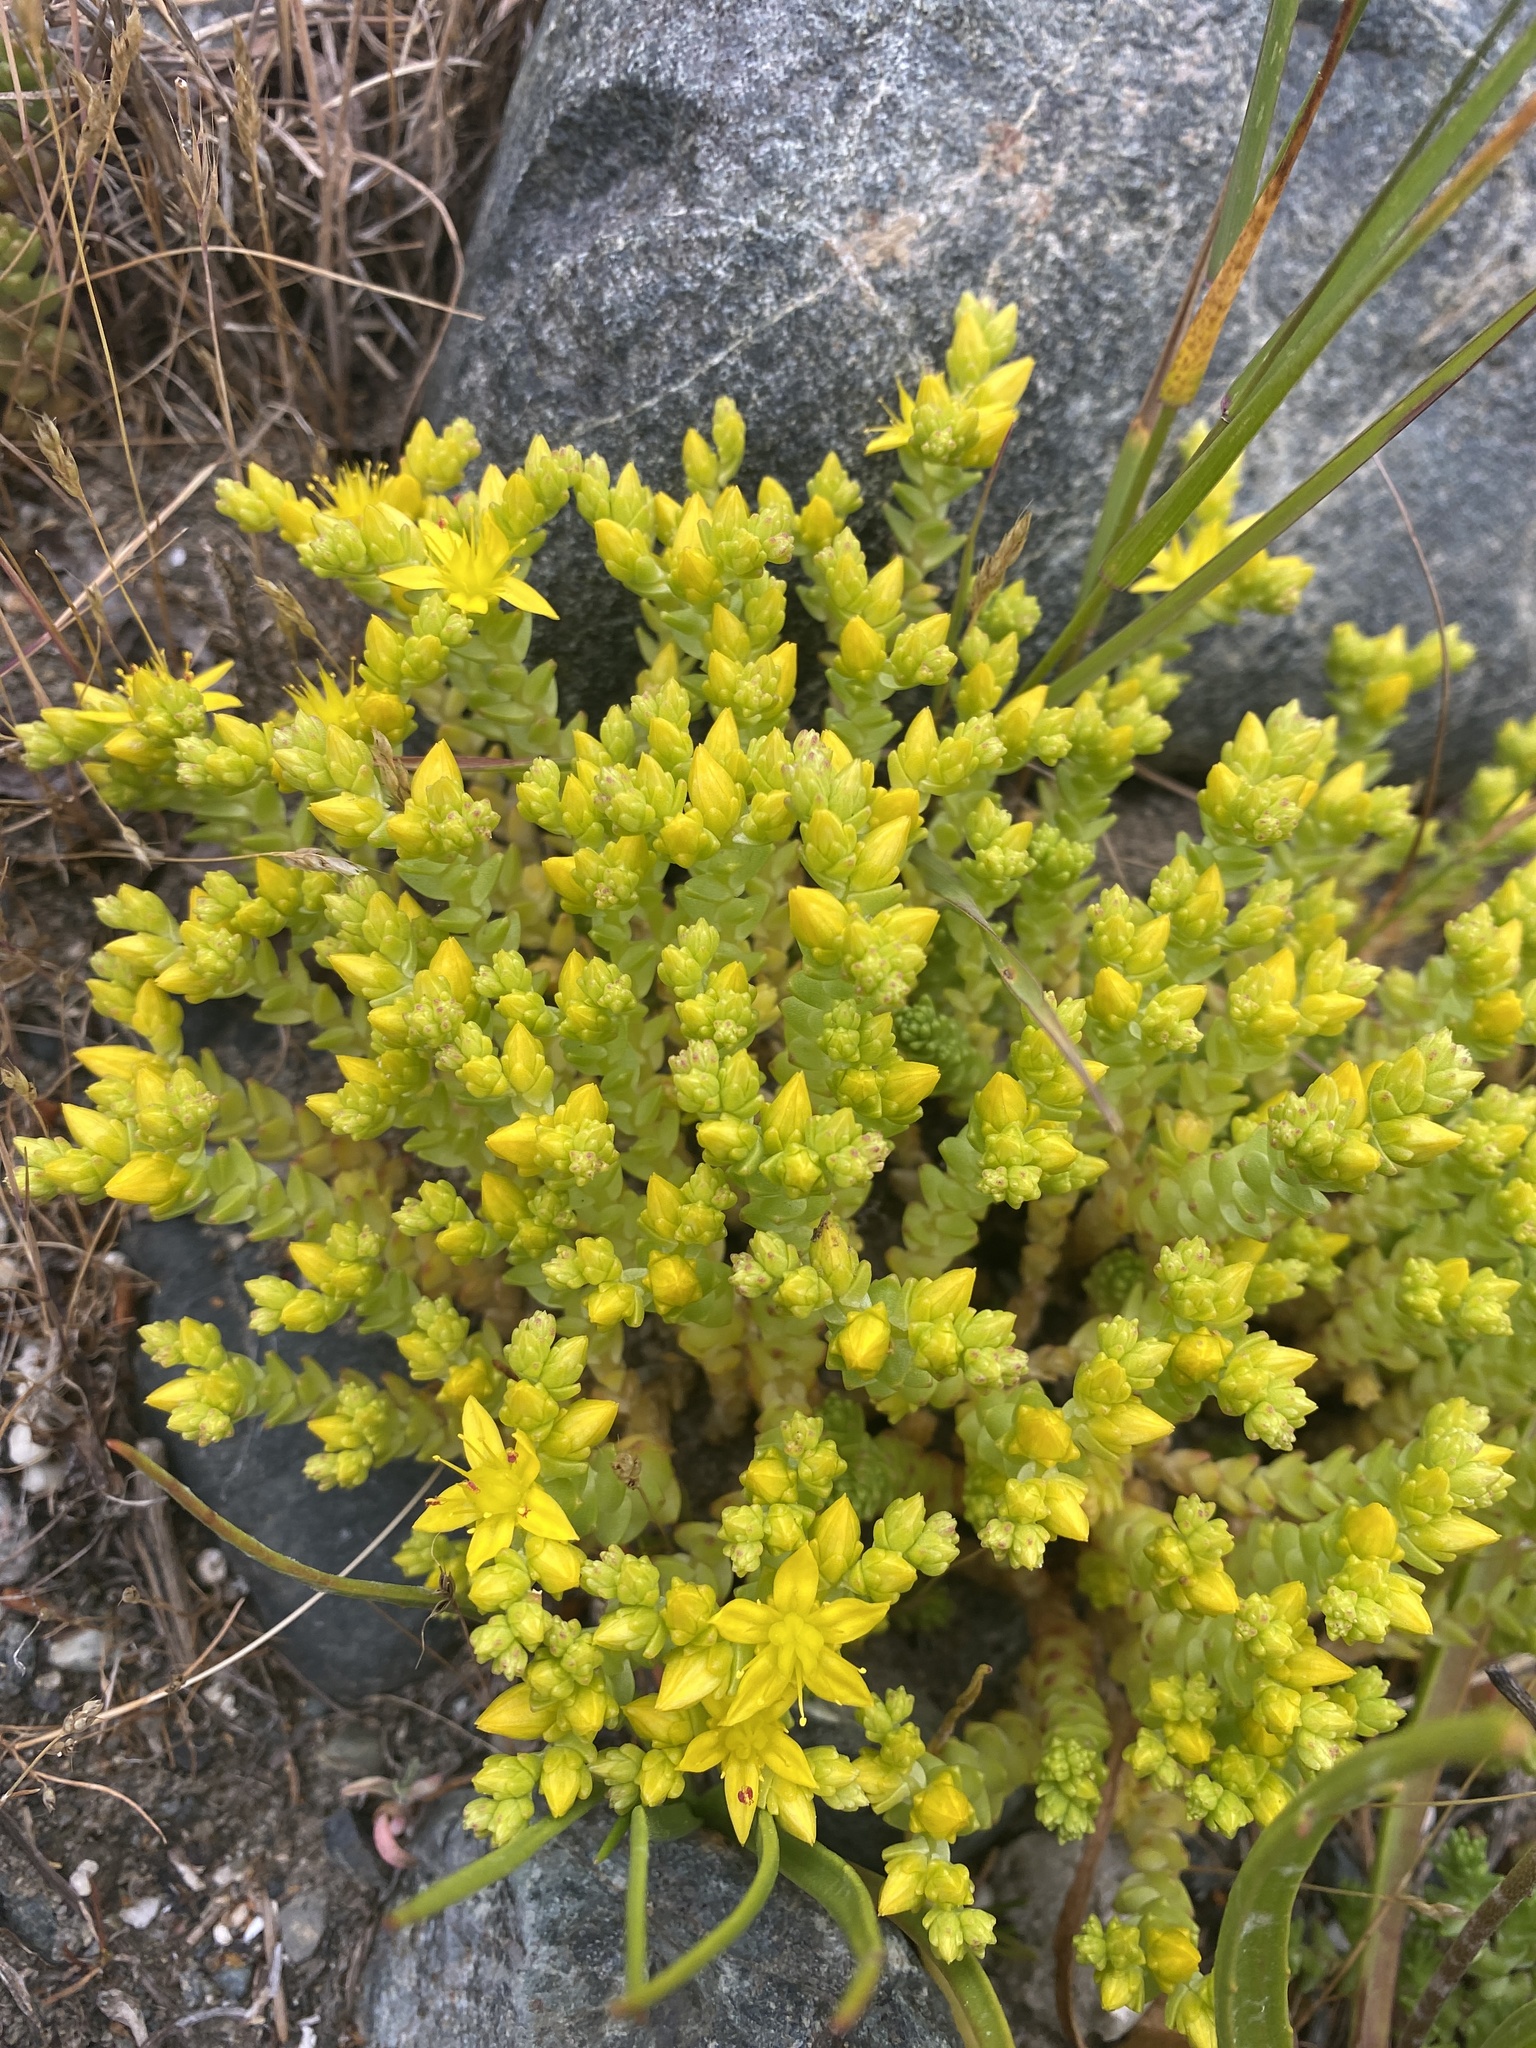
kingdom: Plantae
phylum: Tracheophyta
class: Magnoliopsida
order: Saxifragales
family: Crassulaceae
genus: Sedum
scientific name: Sedum acre
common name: Biting stonecrop
